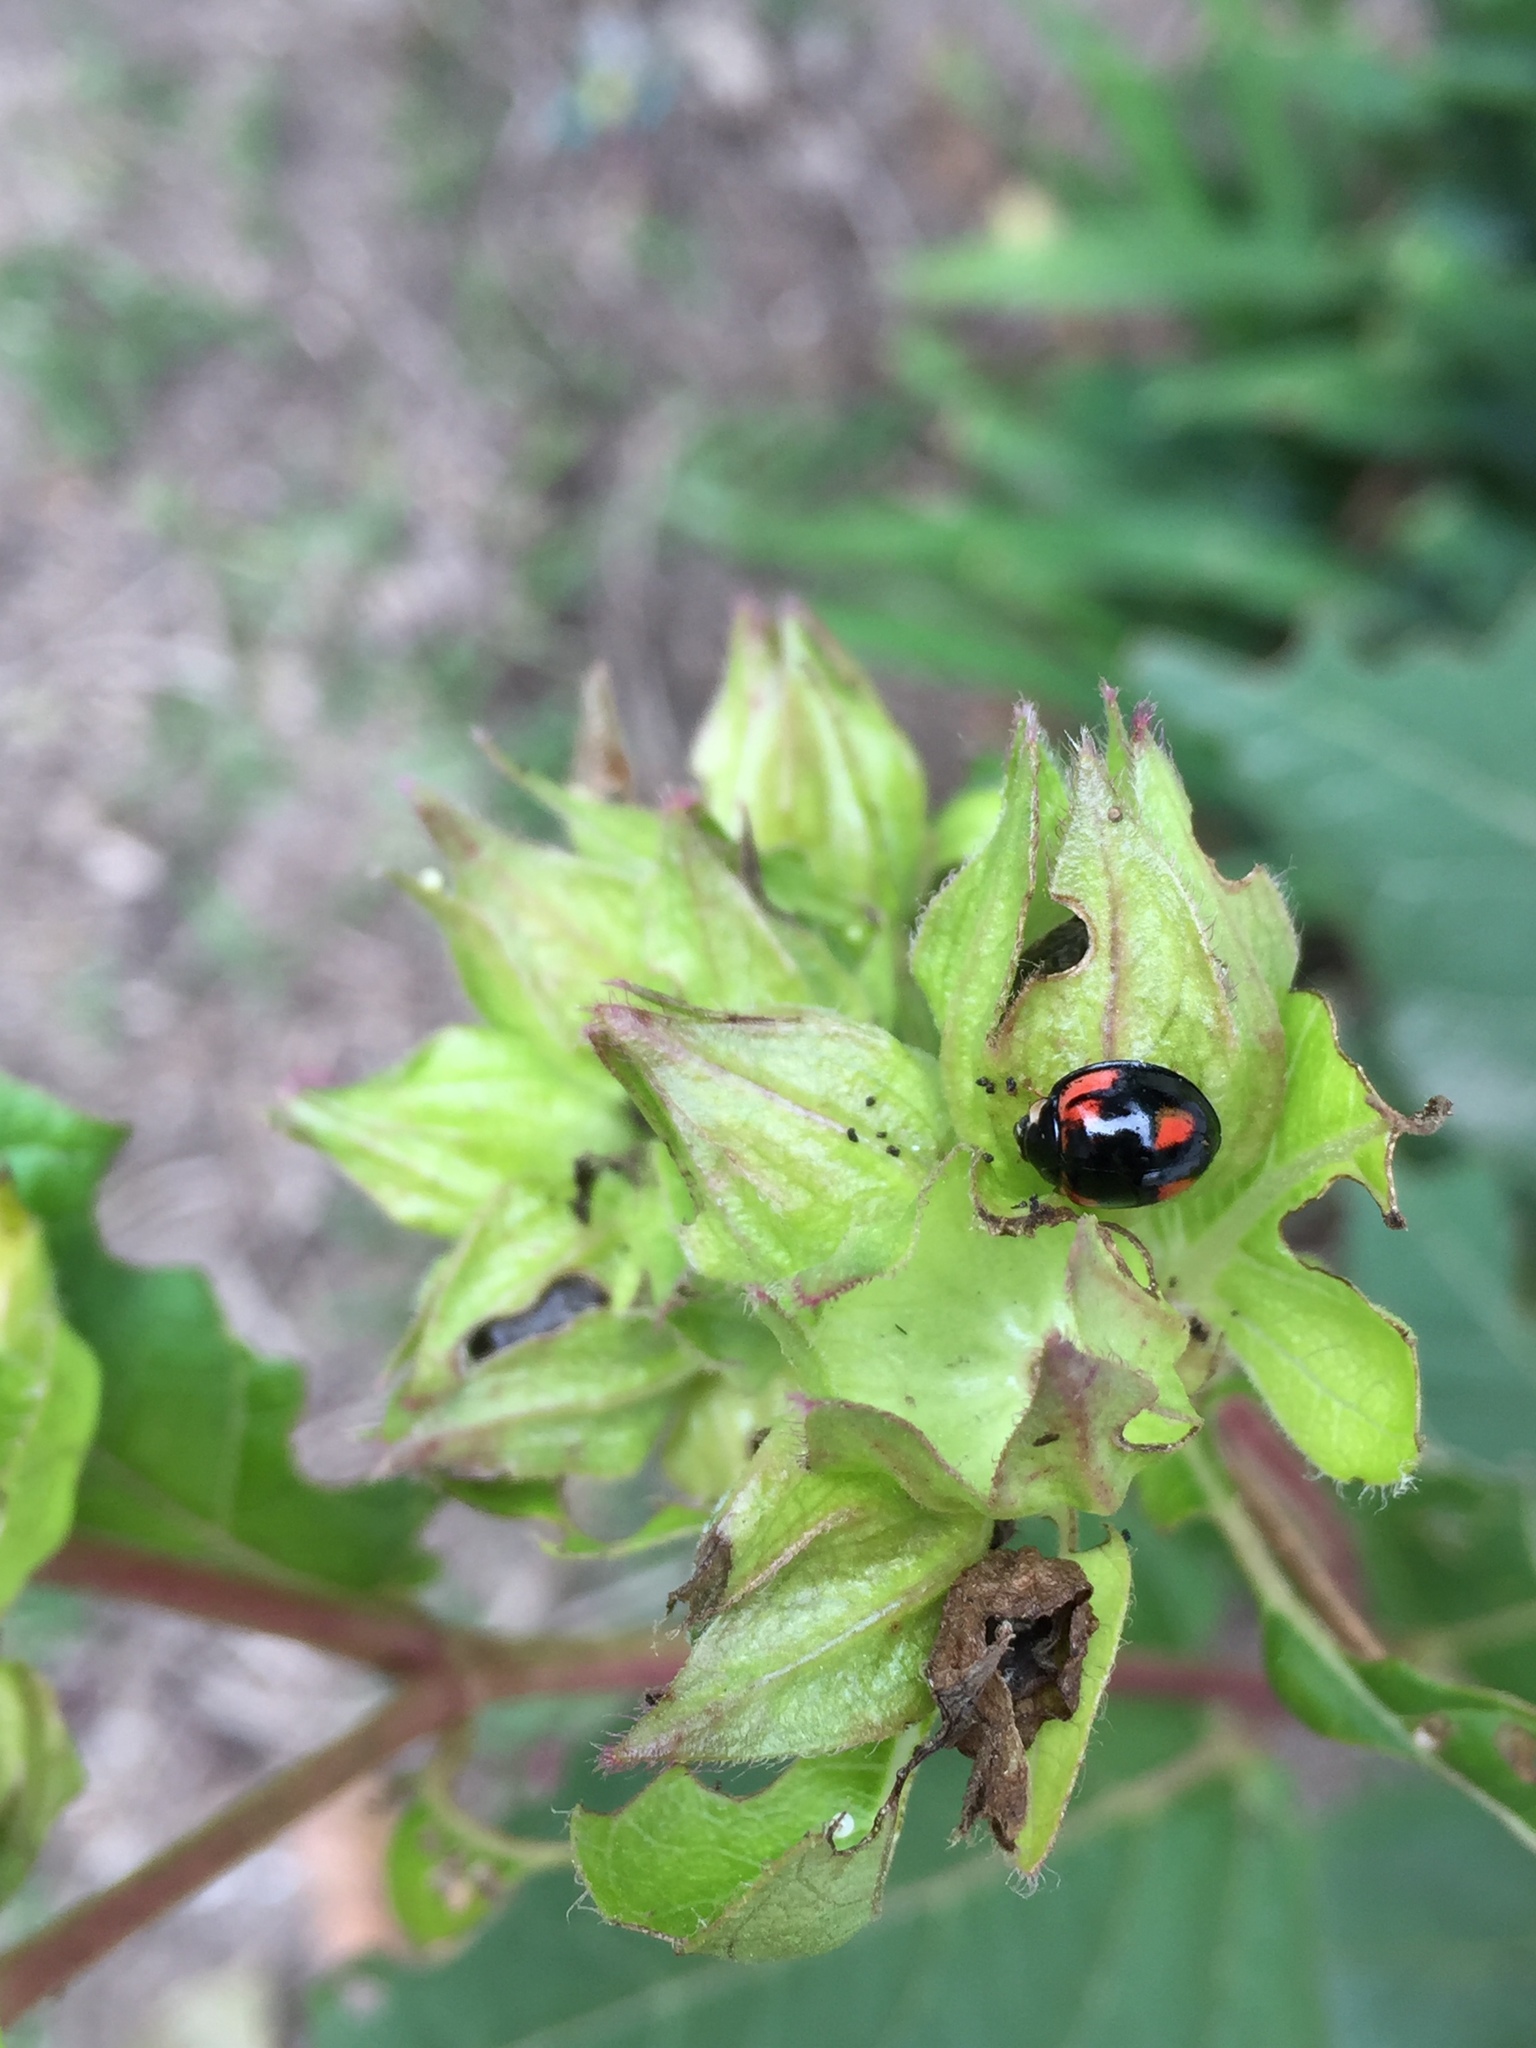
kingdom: Animalia
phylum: Arthropoda
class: Insecta
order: Coleoptera
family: Coccinellidae
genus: Cheilomenes
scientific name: Cheilomenes sexmaculata
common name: Ladybird beetle
